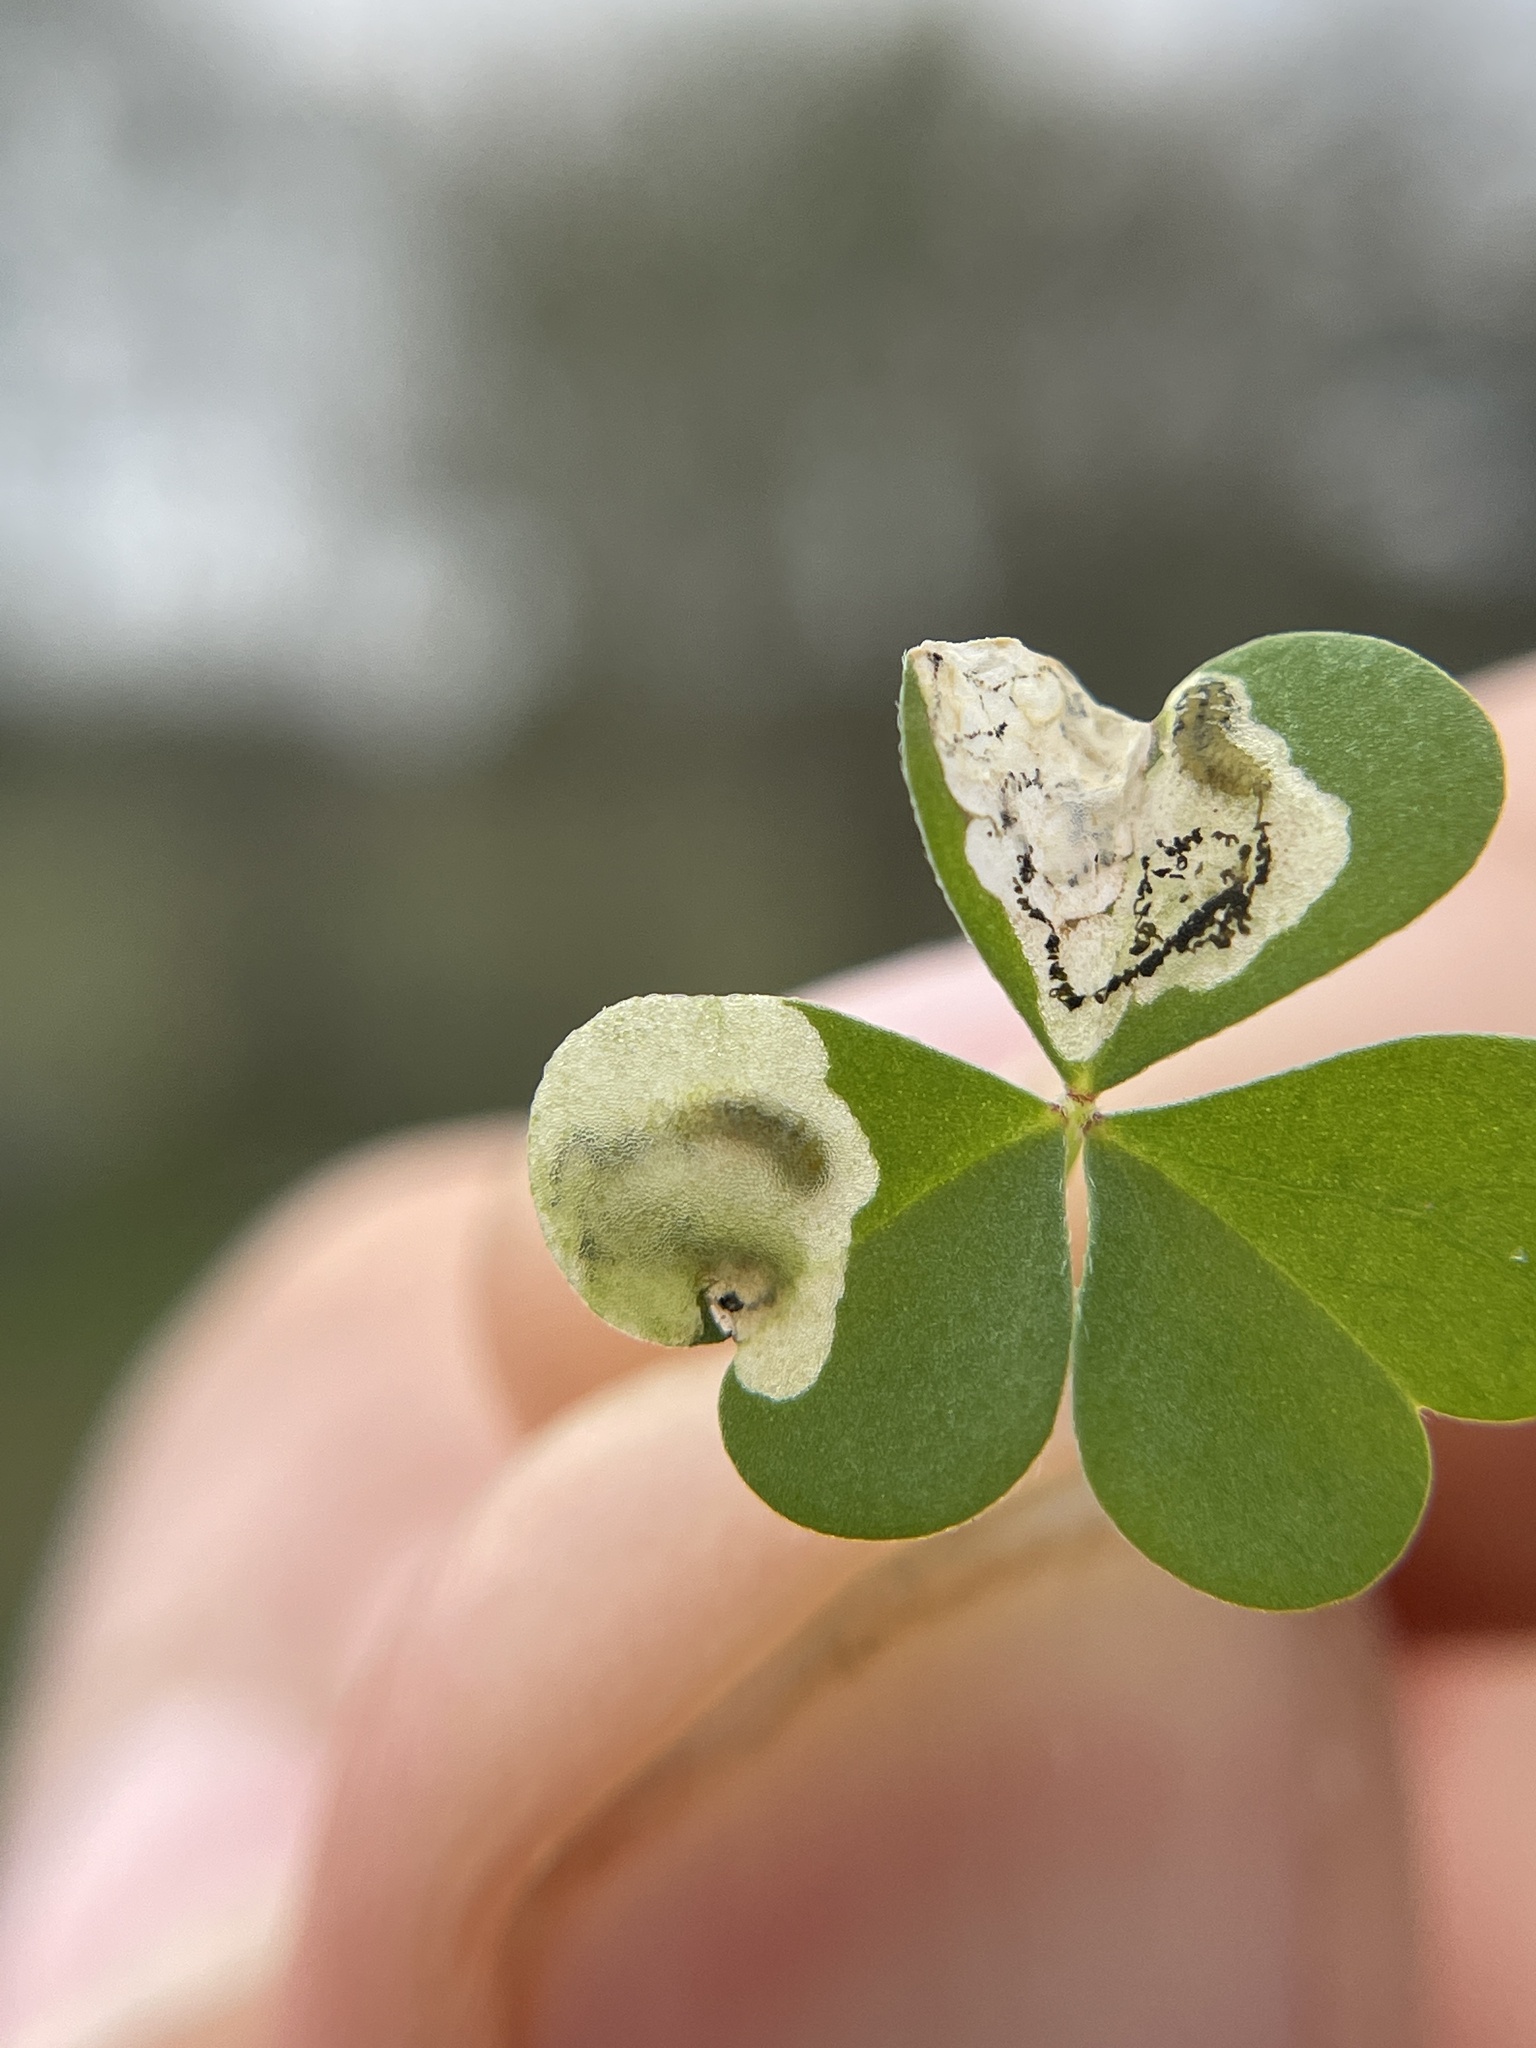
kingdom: Animalia
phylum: Arthropoda
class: Insecta
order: Coleoptera
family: Chrysomelidae
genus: Mantura
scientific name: Mantura floridana
